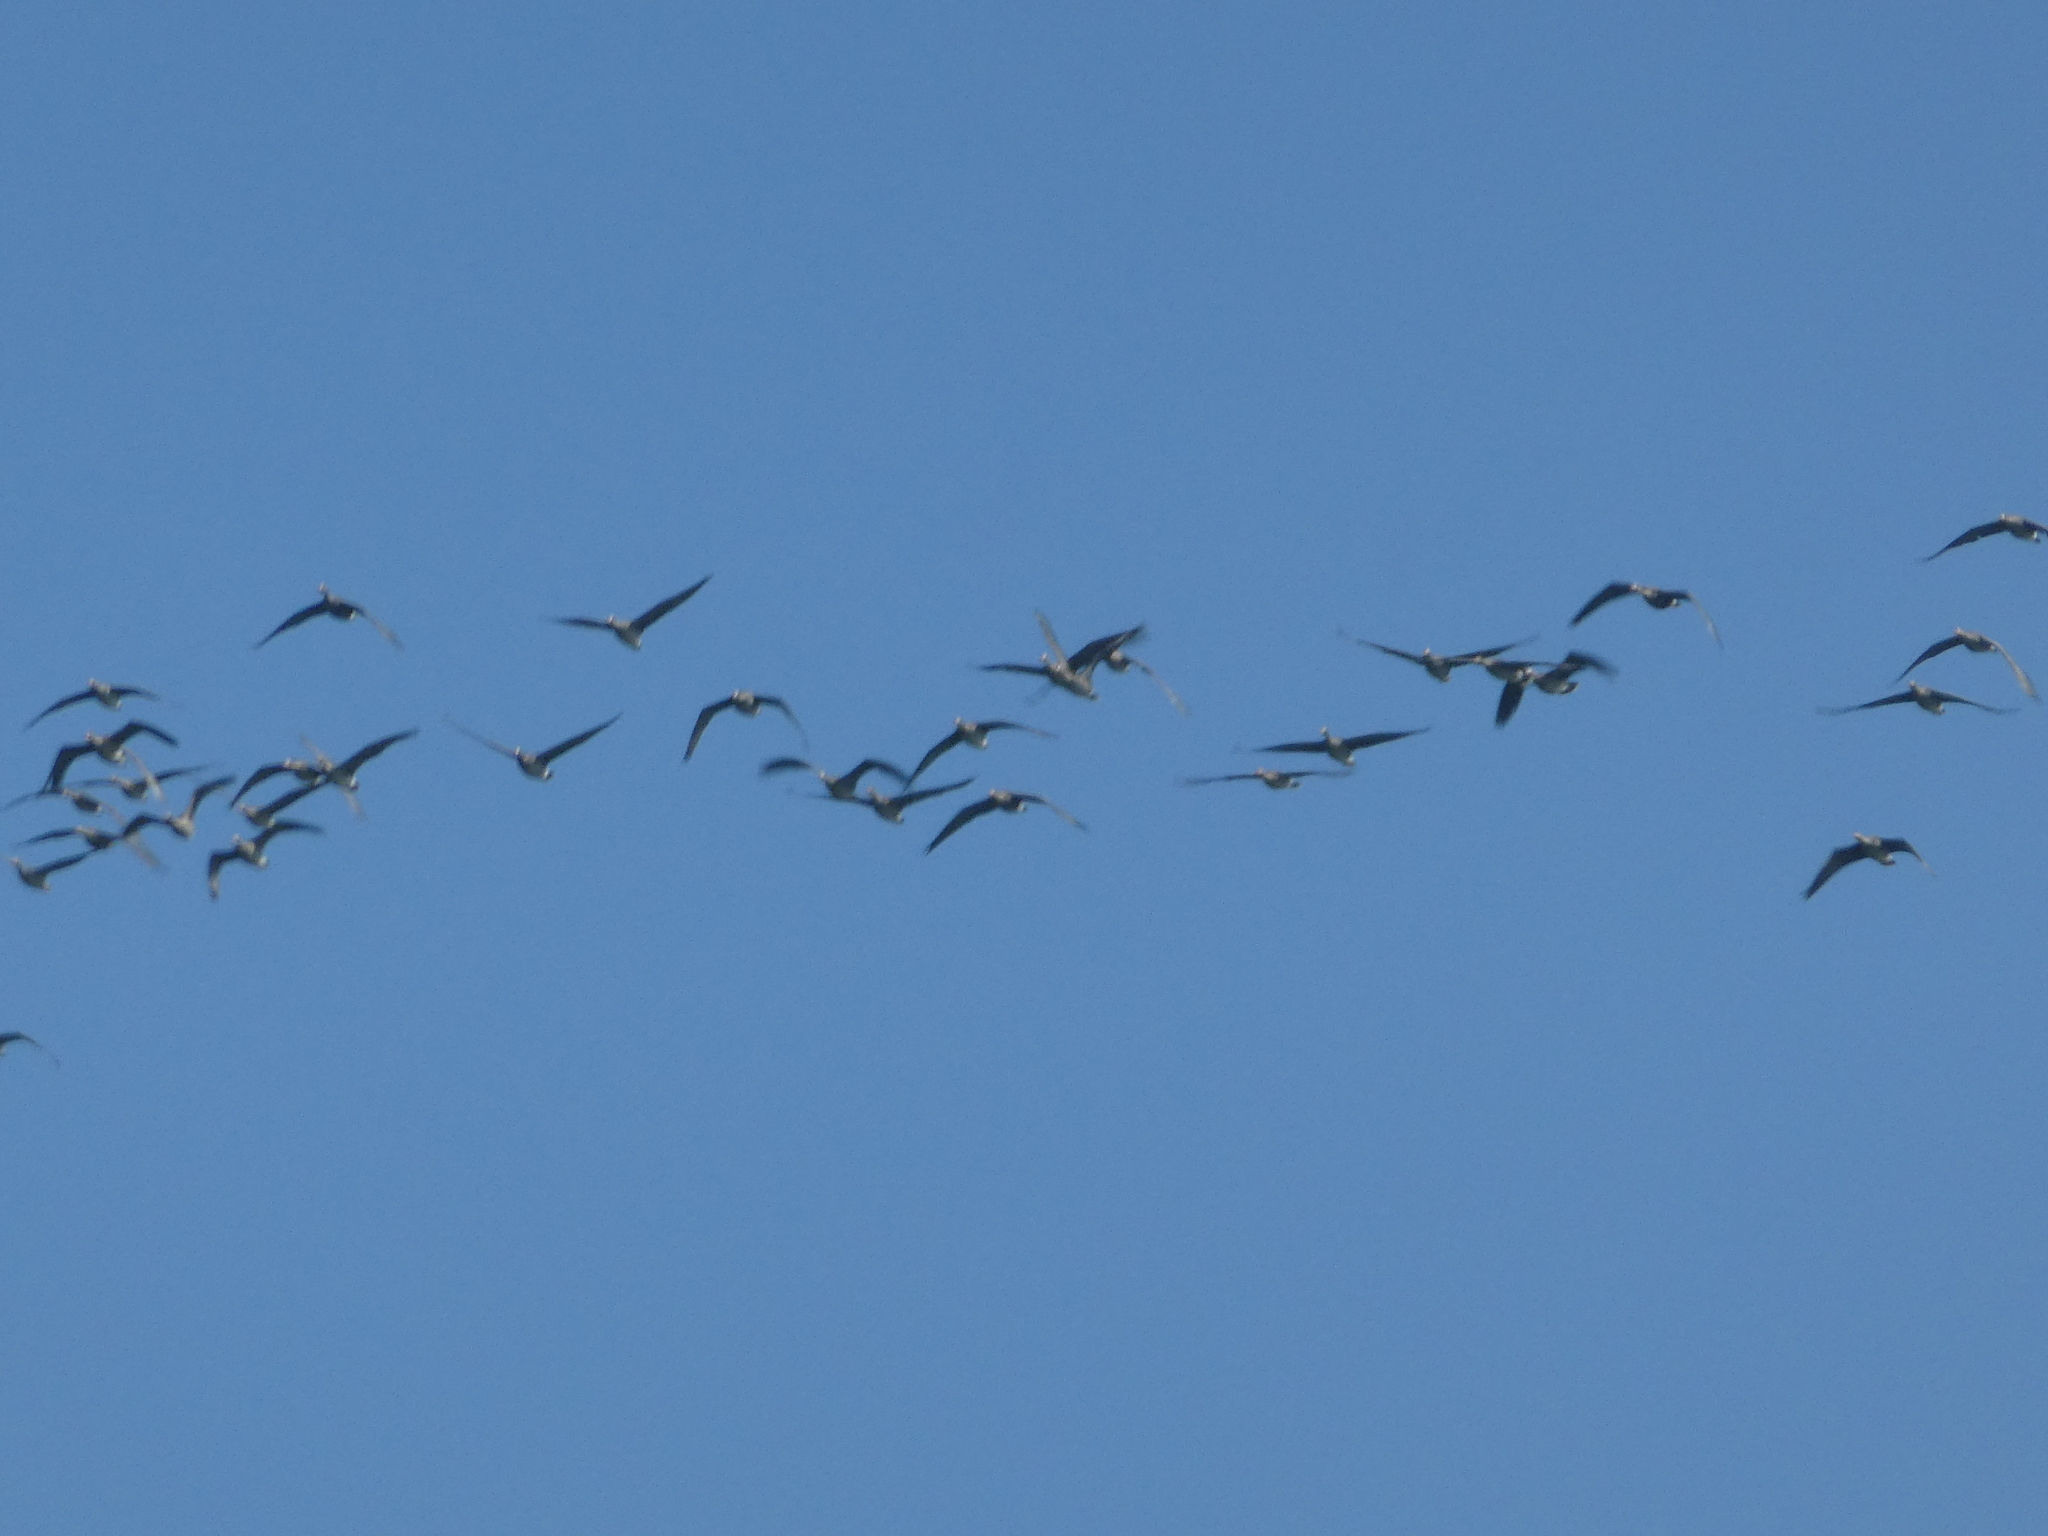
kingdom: Animalia
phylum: Chordata
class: Aves
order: Anseriformes
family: Anatidae
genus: Anser
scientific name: Anser albifrons
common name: Greater white-fronted goose
